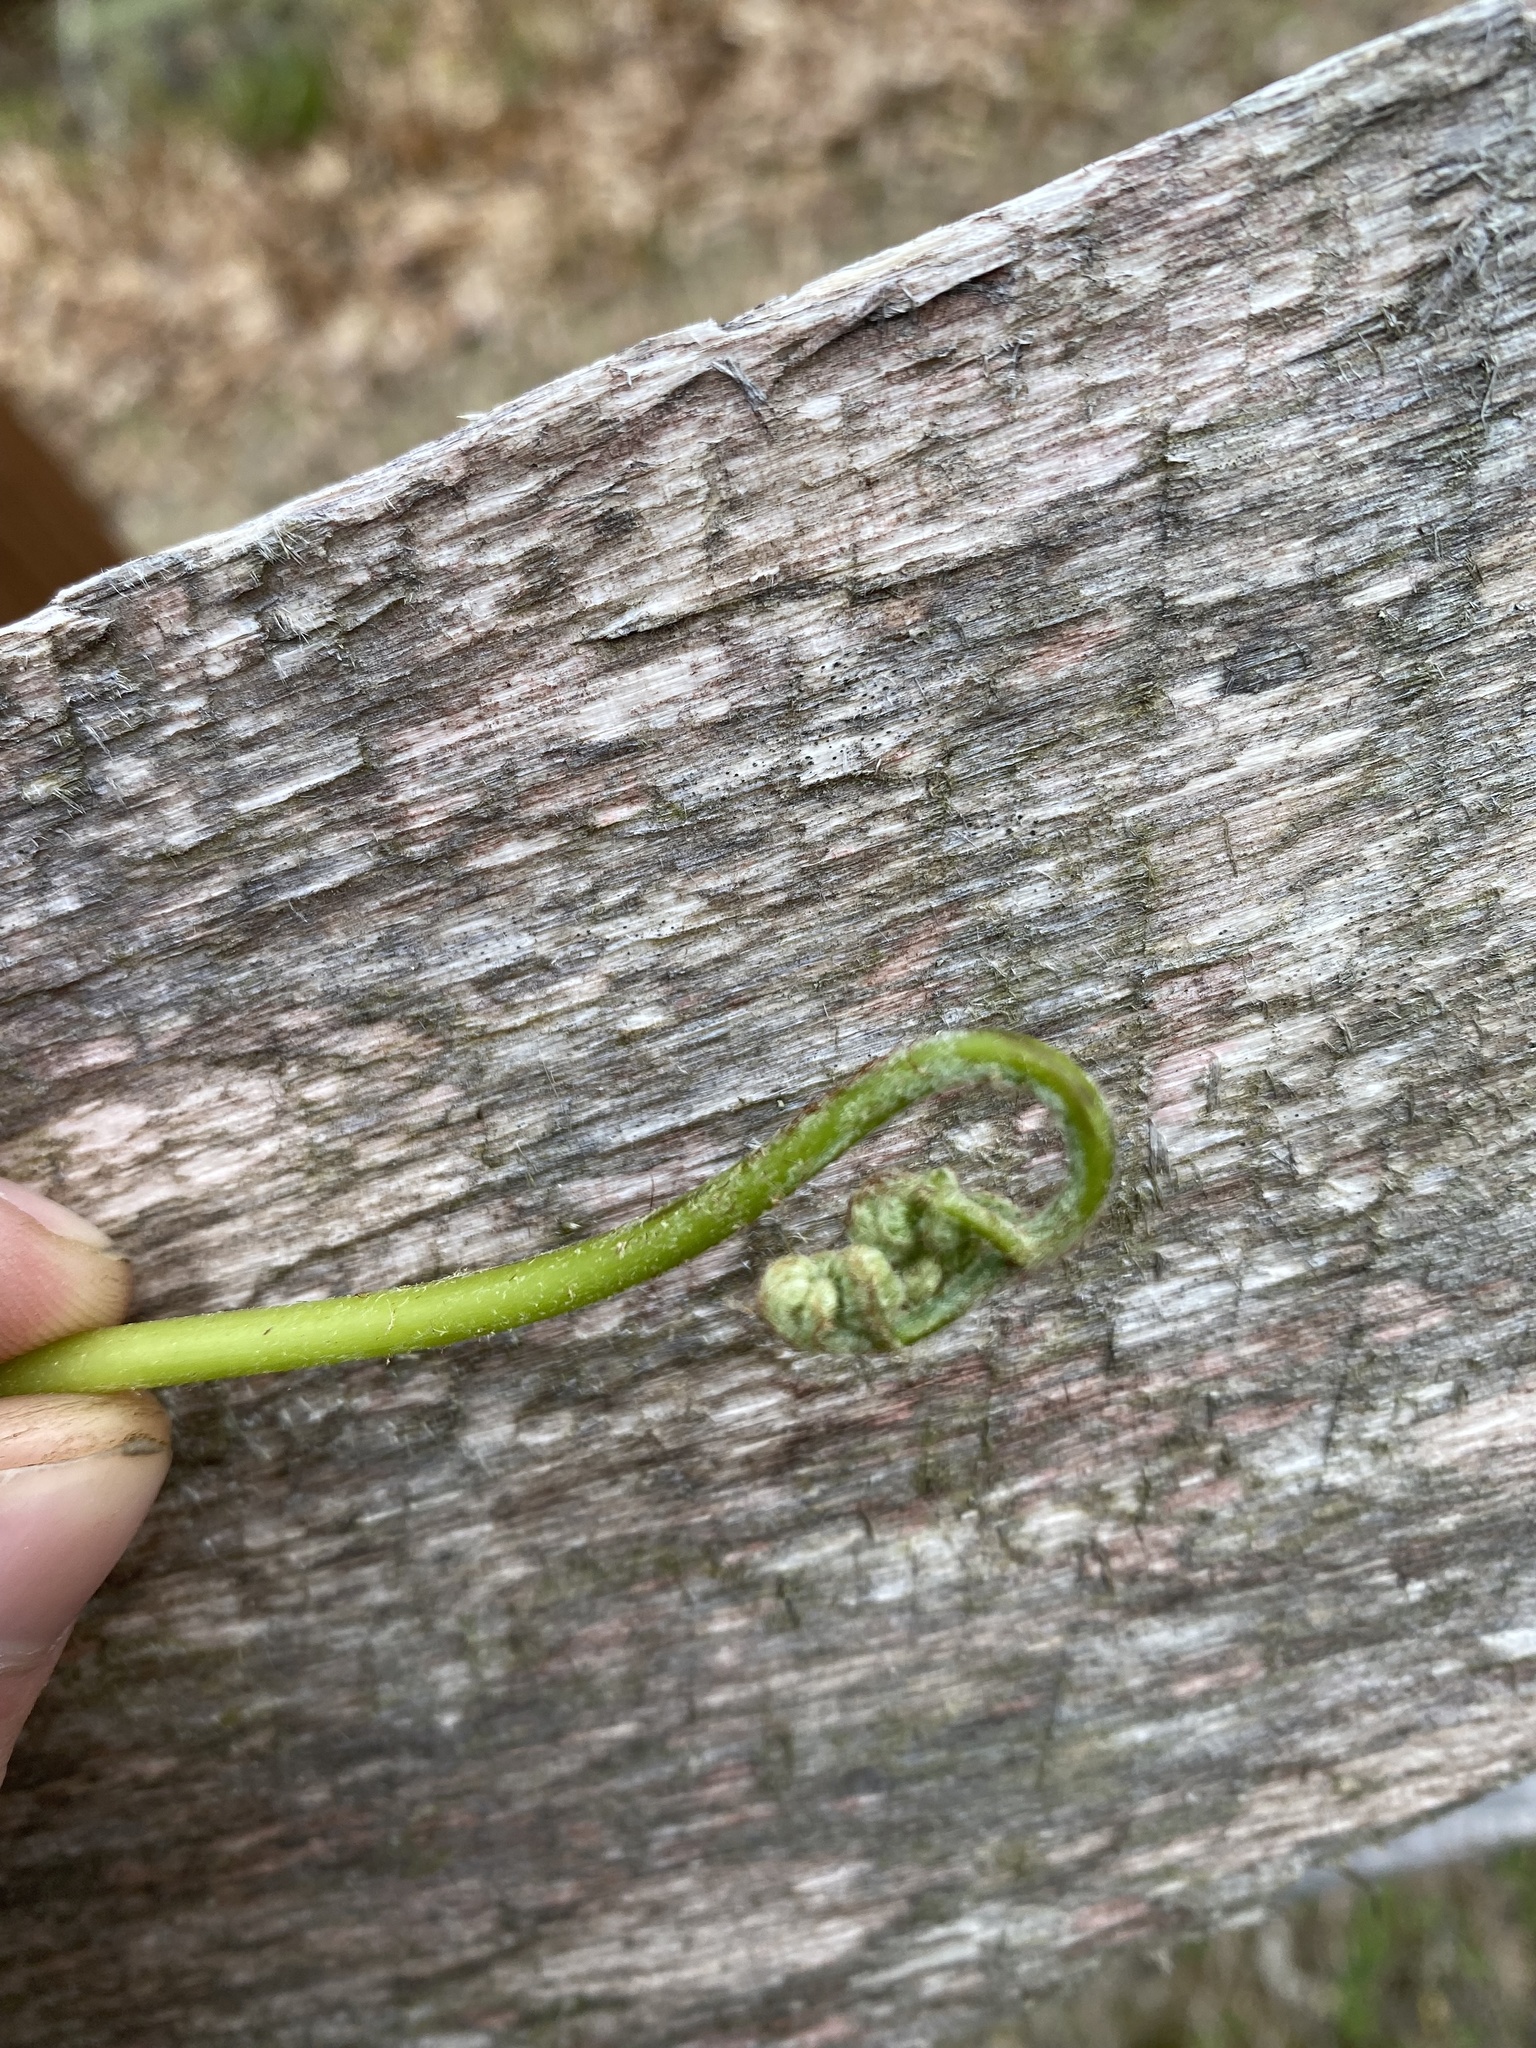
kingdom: Plantae
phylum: Tracheophyta
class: Polypodiopsida
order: Polypodiales
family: Dennstaedtiaceae
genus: Pteridium
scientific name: Pteridium aquilinum
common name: Bracken
